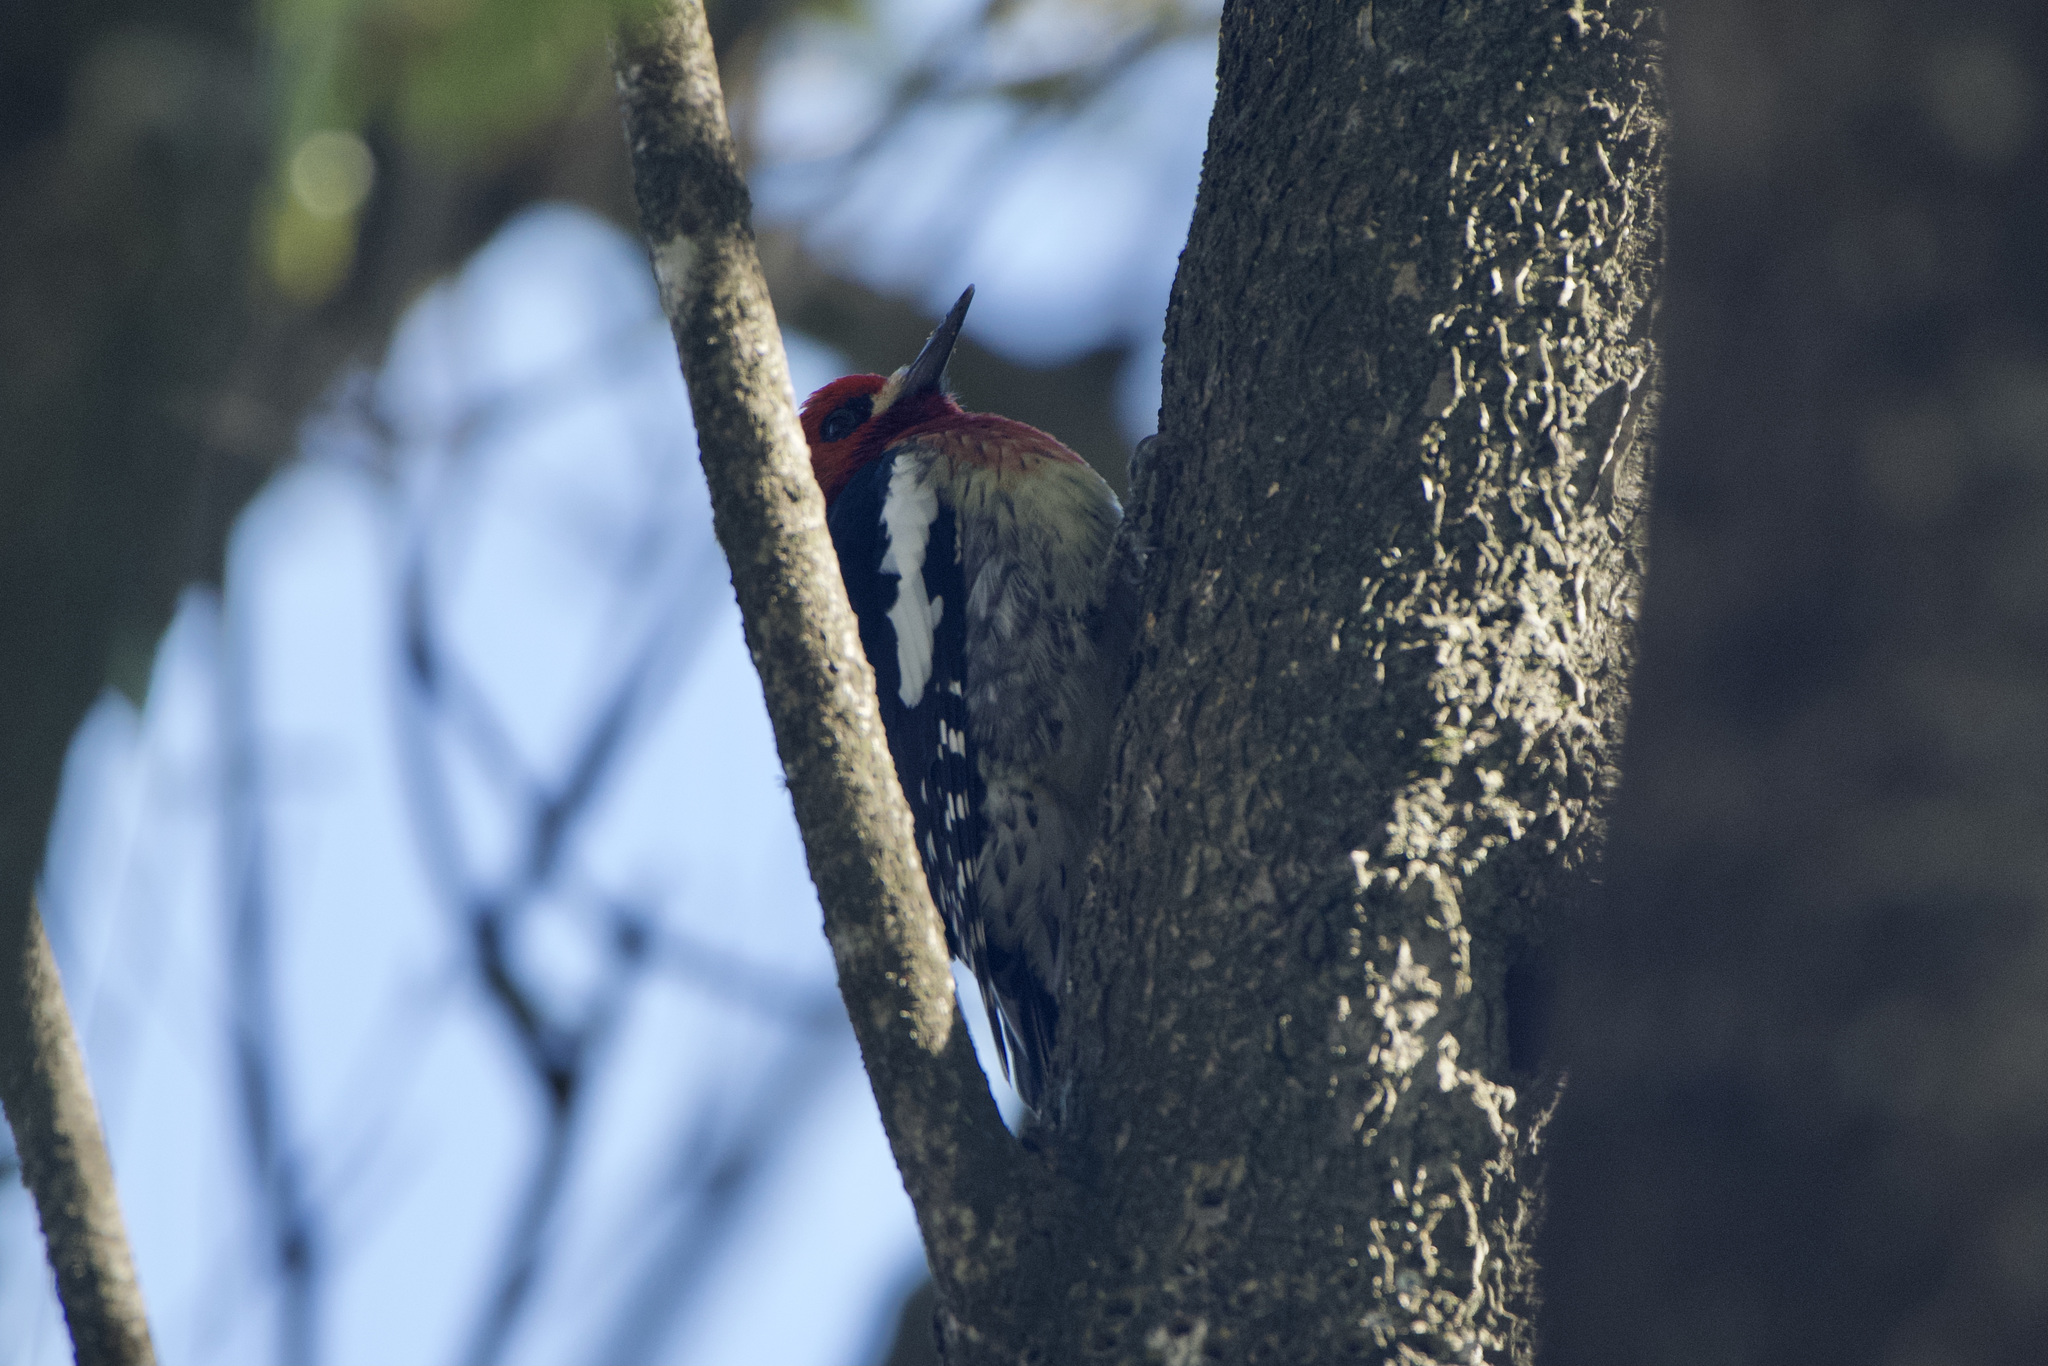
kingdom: Animalia
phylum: Chordata
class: Aves
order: Piciformes
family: Picidae
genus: Sphyrapicus
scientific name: Sphyrapicus ruber
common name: Red-breasted sapsucker
